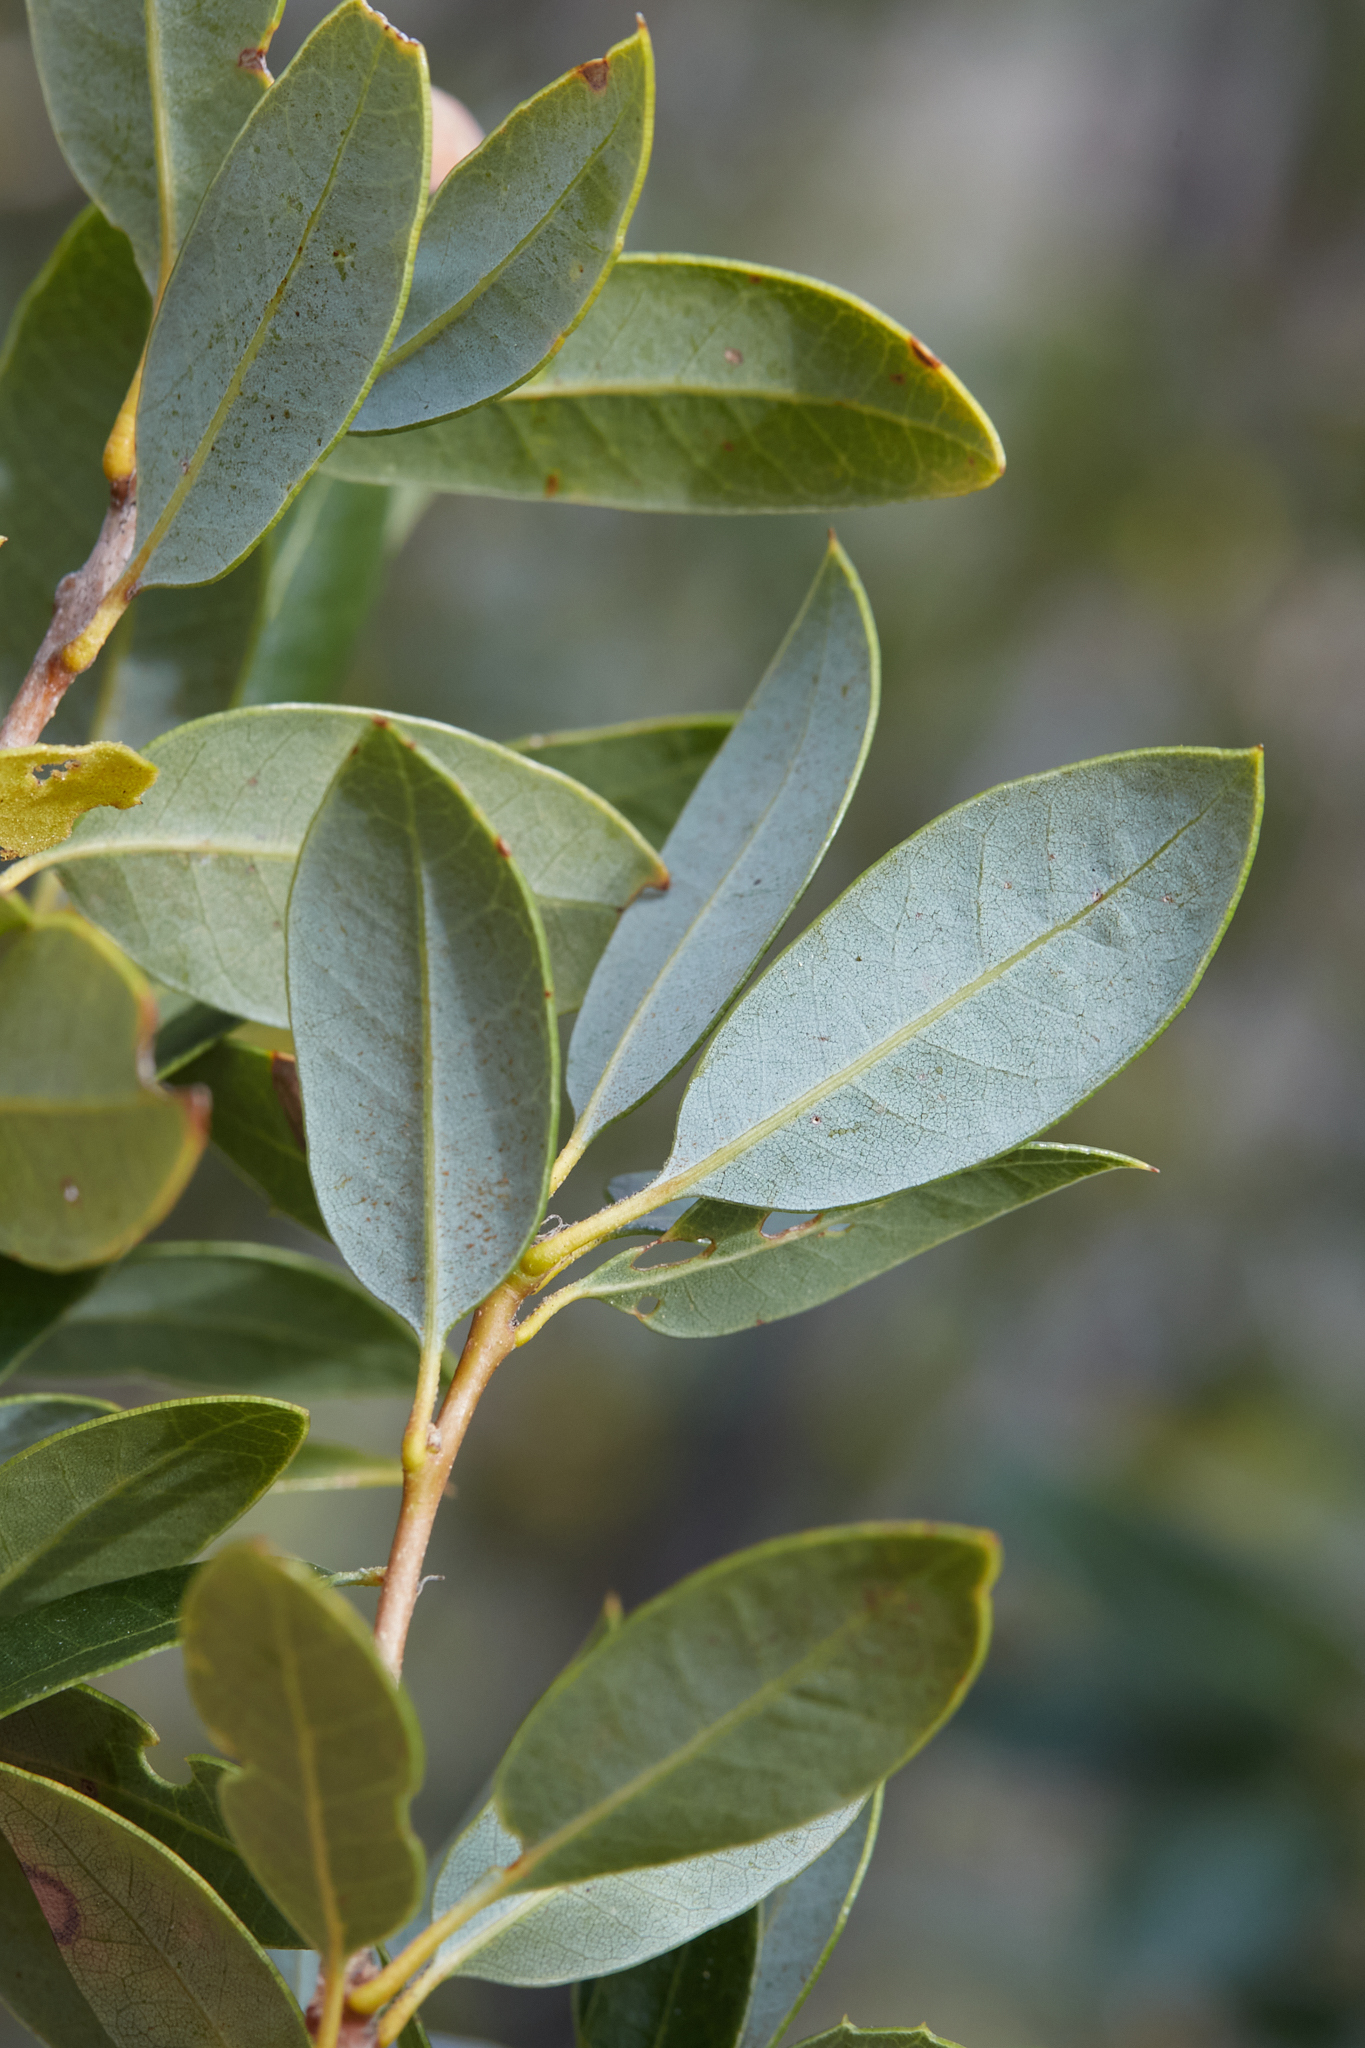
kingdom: Plantae
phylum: Tracheophyta
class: Magnoliopsida
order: Fagales
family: Fagaceae
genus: Quercus
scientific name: Quercus chrysolepis
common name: Canyon live oak
